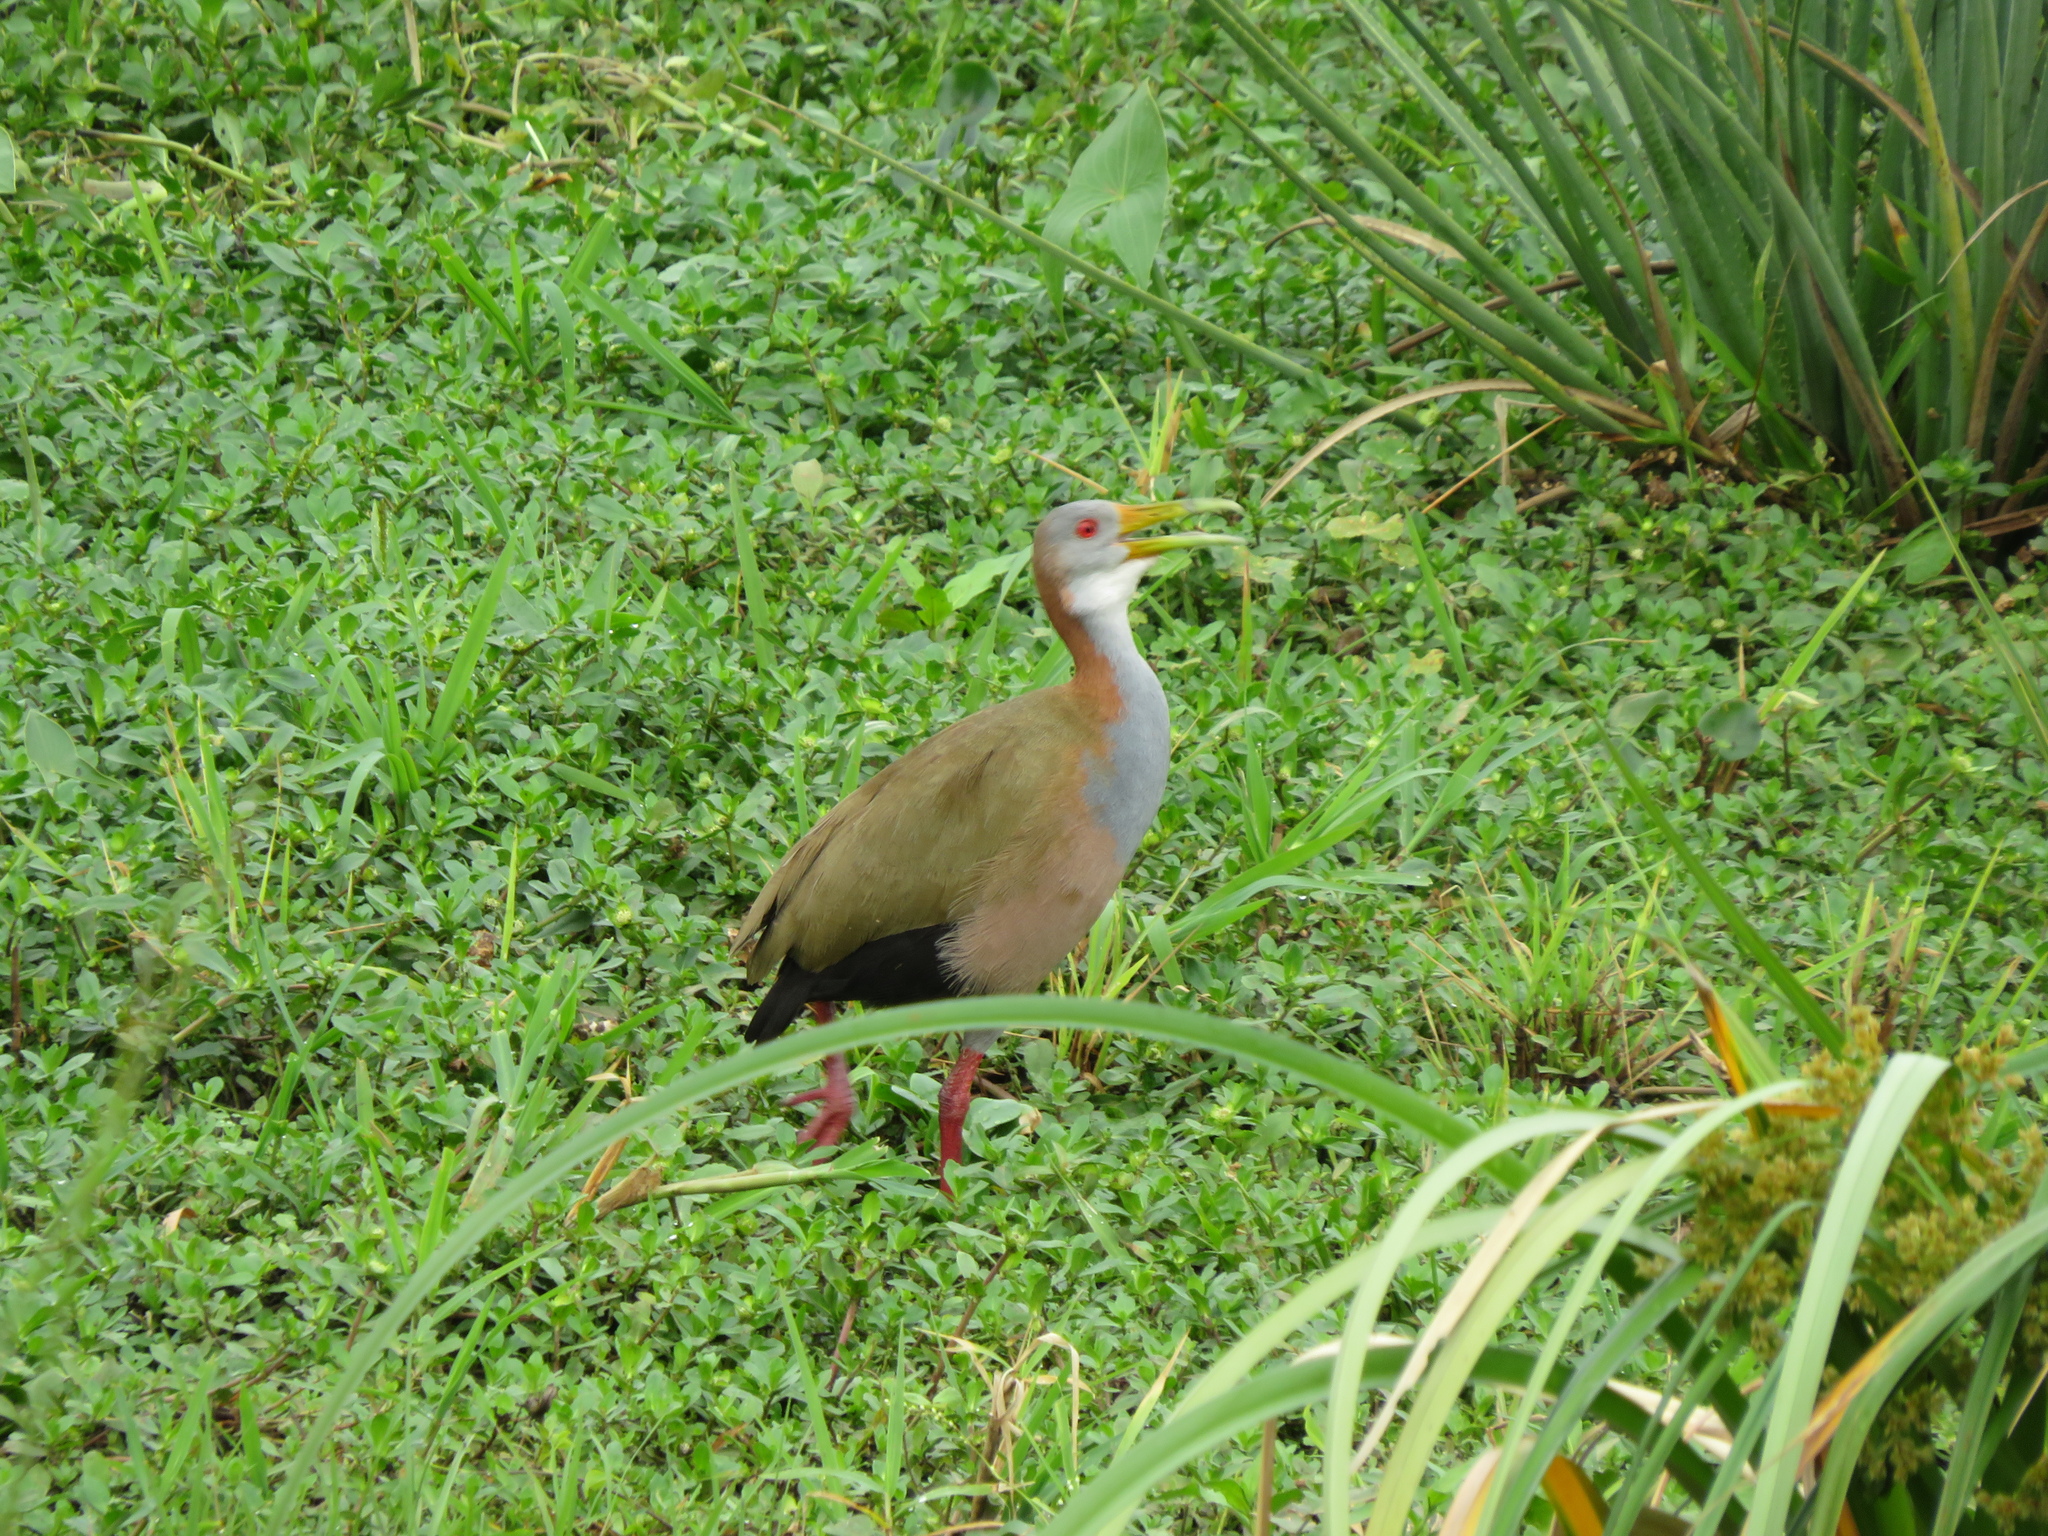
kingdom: Animalia
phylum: Chordata
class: Aves
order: Gruiformes
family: Rallidae
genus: Aramides
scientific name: Aramides ypecaha
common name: Giant wood rail
